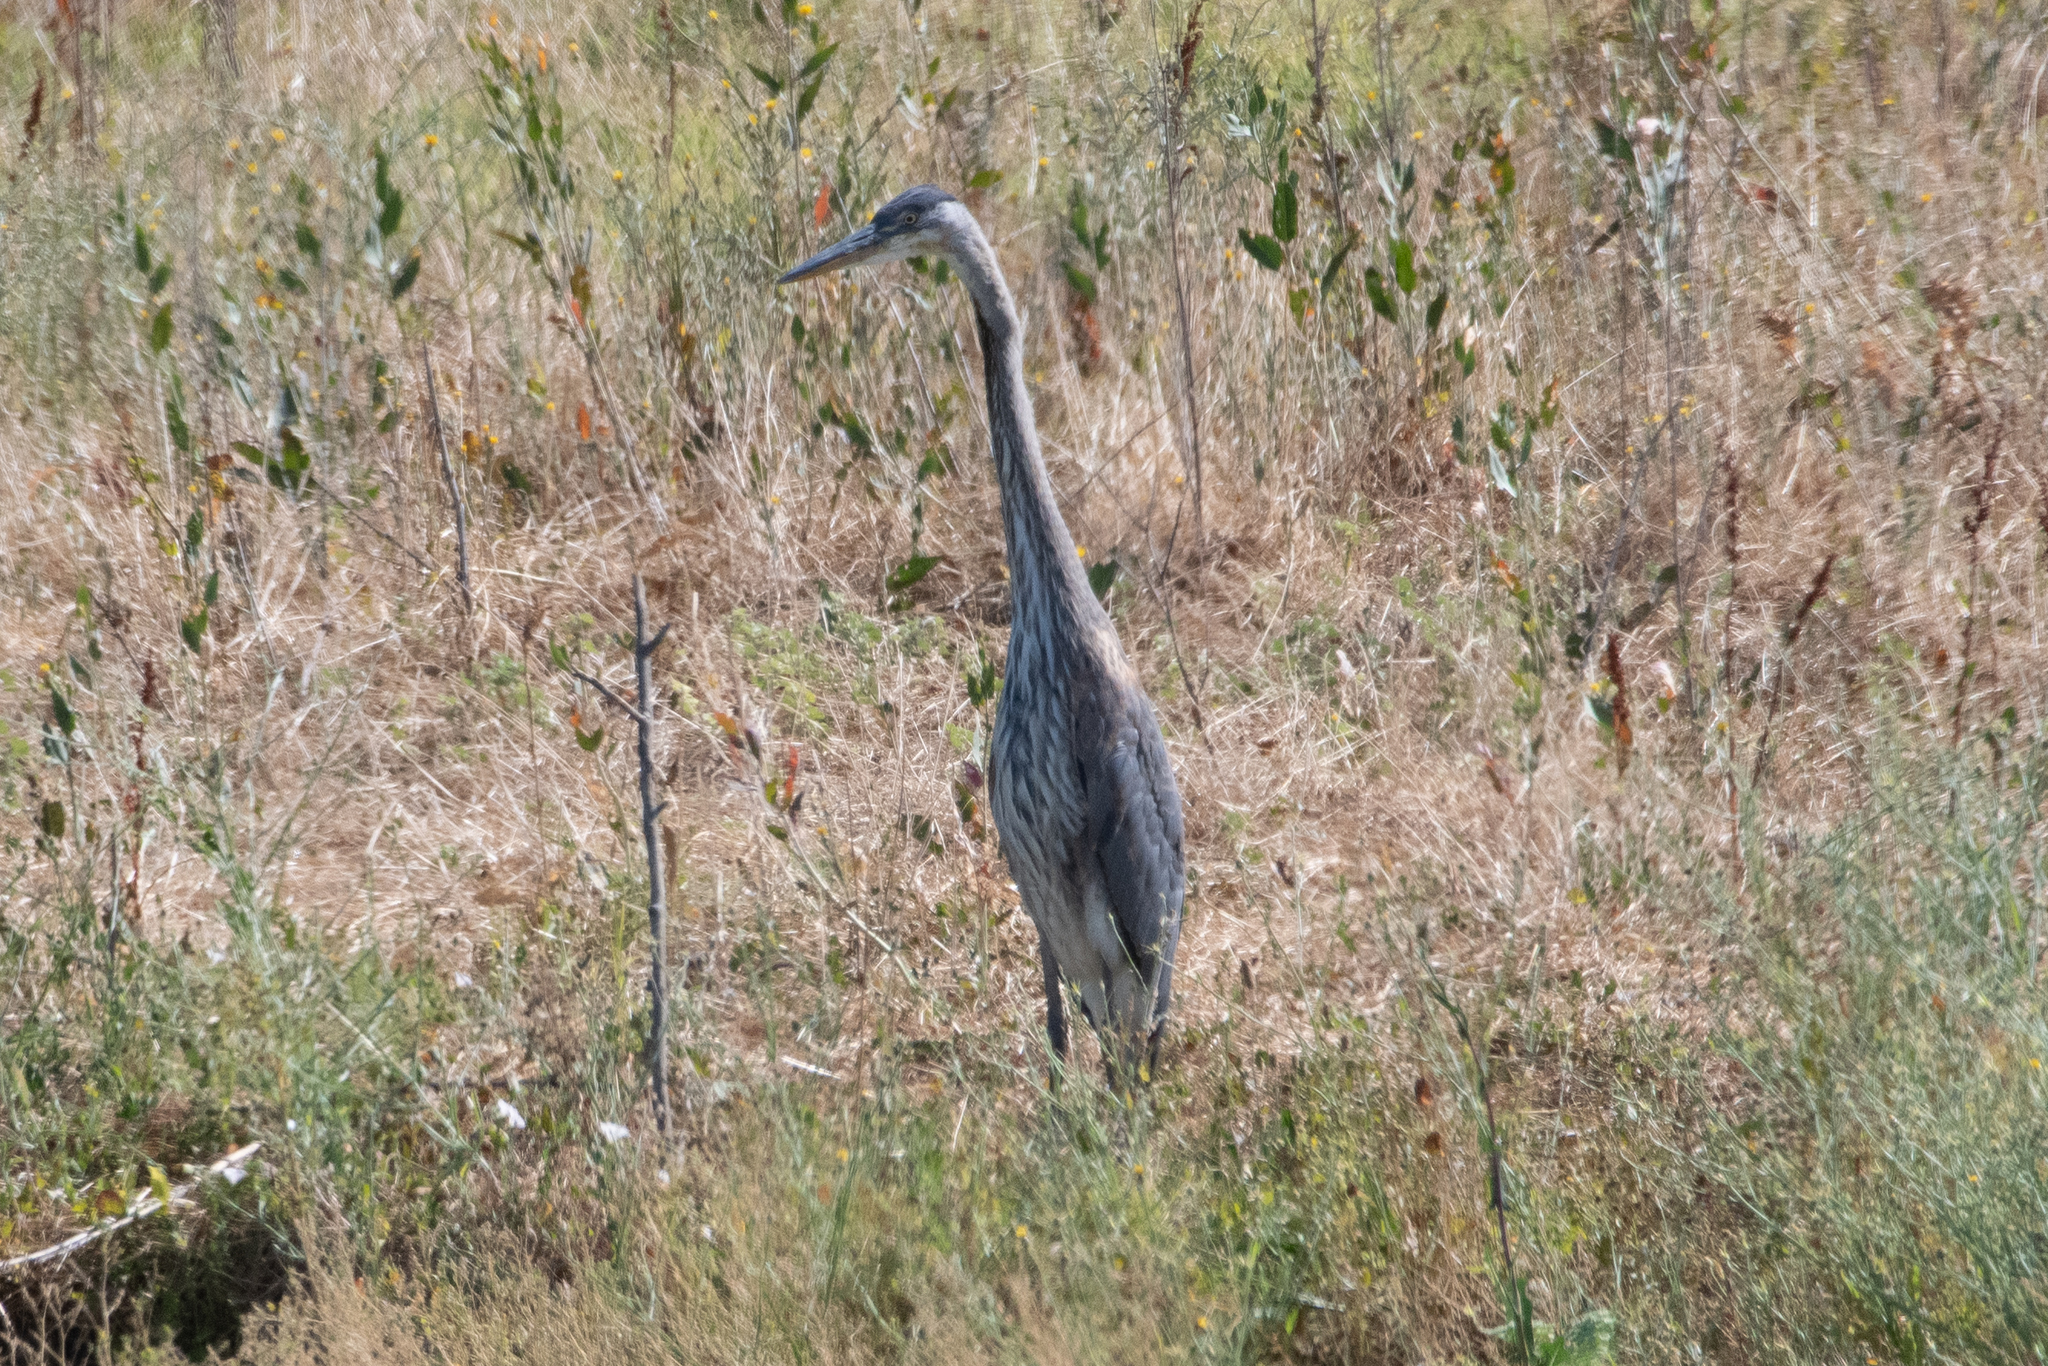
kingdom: Animalia
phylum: Chordata
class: Aves
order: Pelecaniformes
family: Ardeidae
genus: Ardea
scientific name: Ardea herodias
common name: Great blue heron
